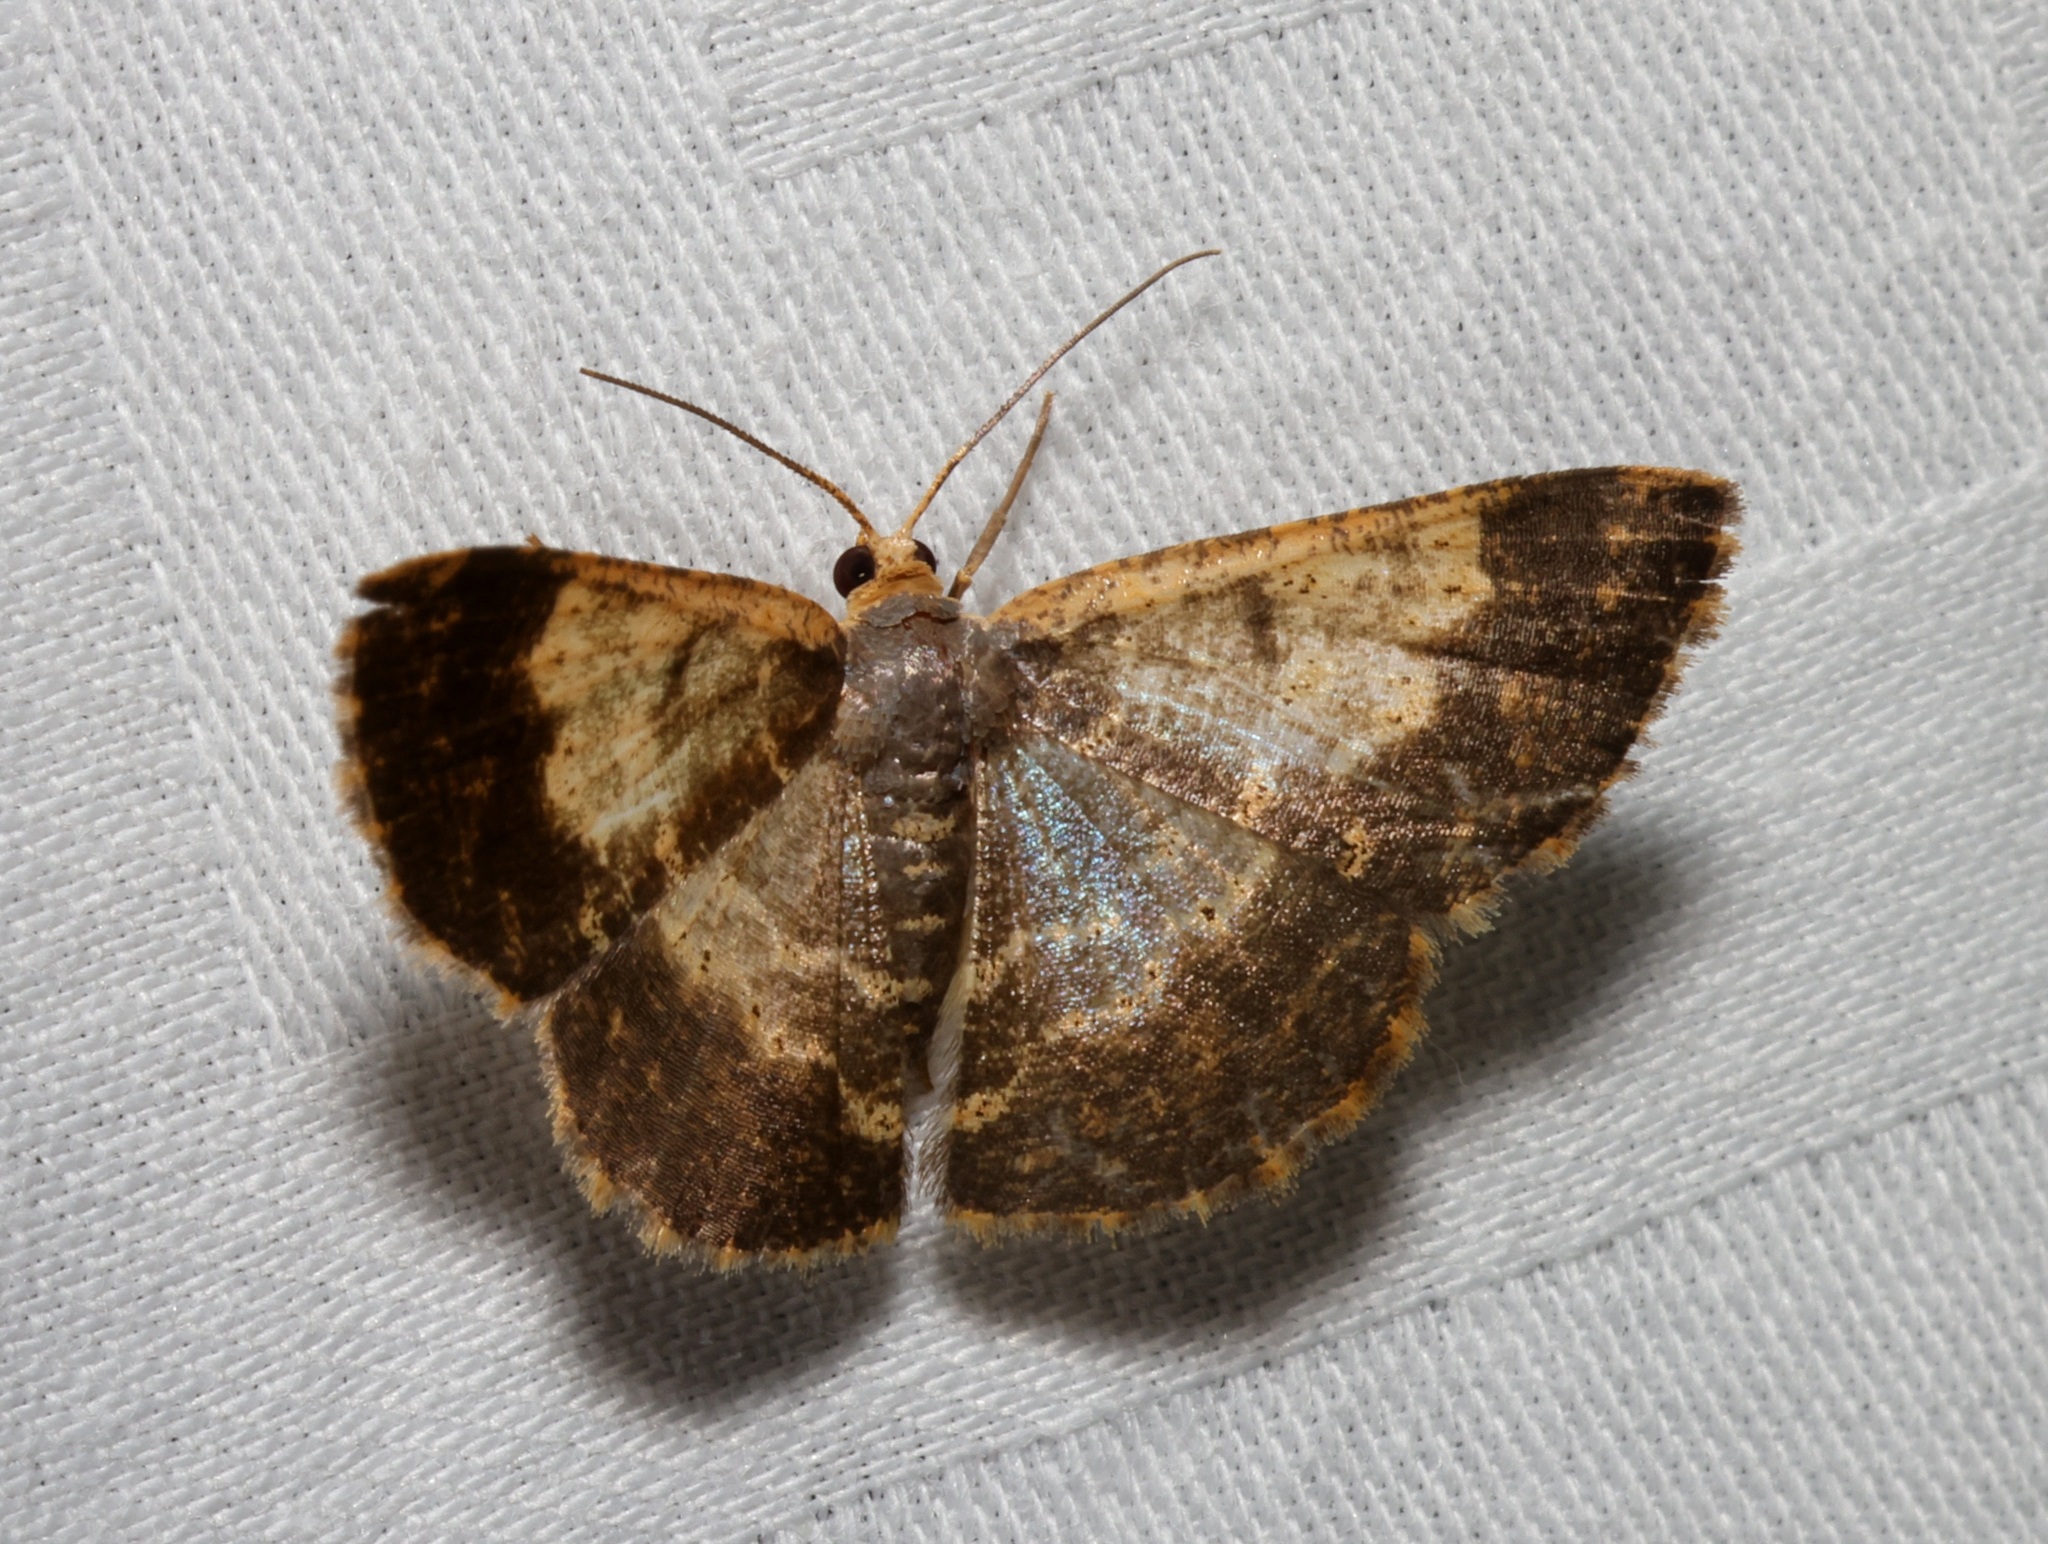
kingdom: Animalia
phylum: Arthropoda
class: Insecta
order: Lepidoptera
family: Geometridae
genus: Peratophyga
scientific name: Peratophyga crista
